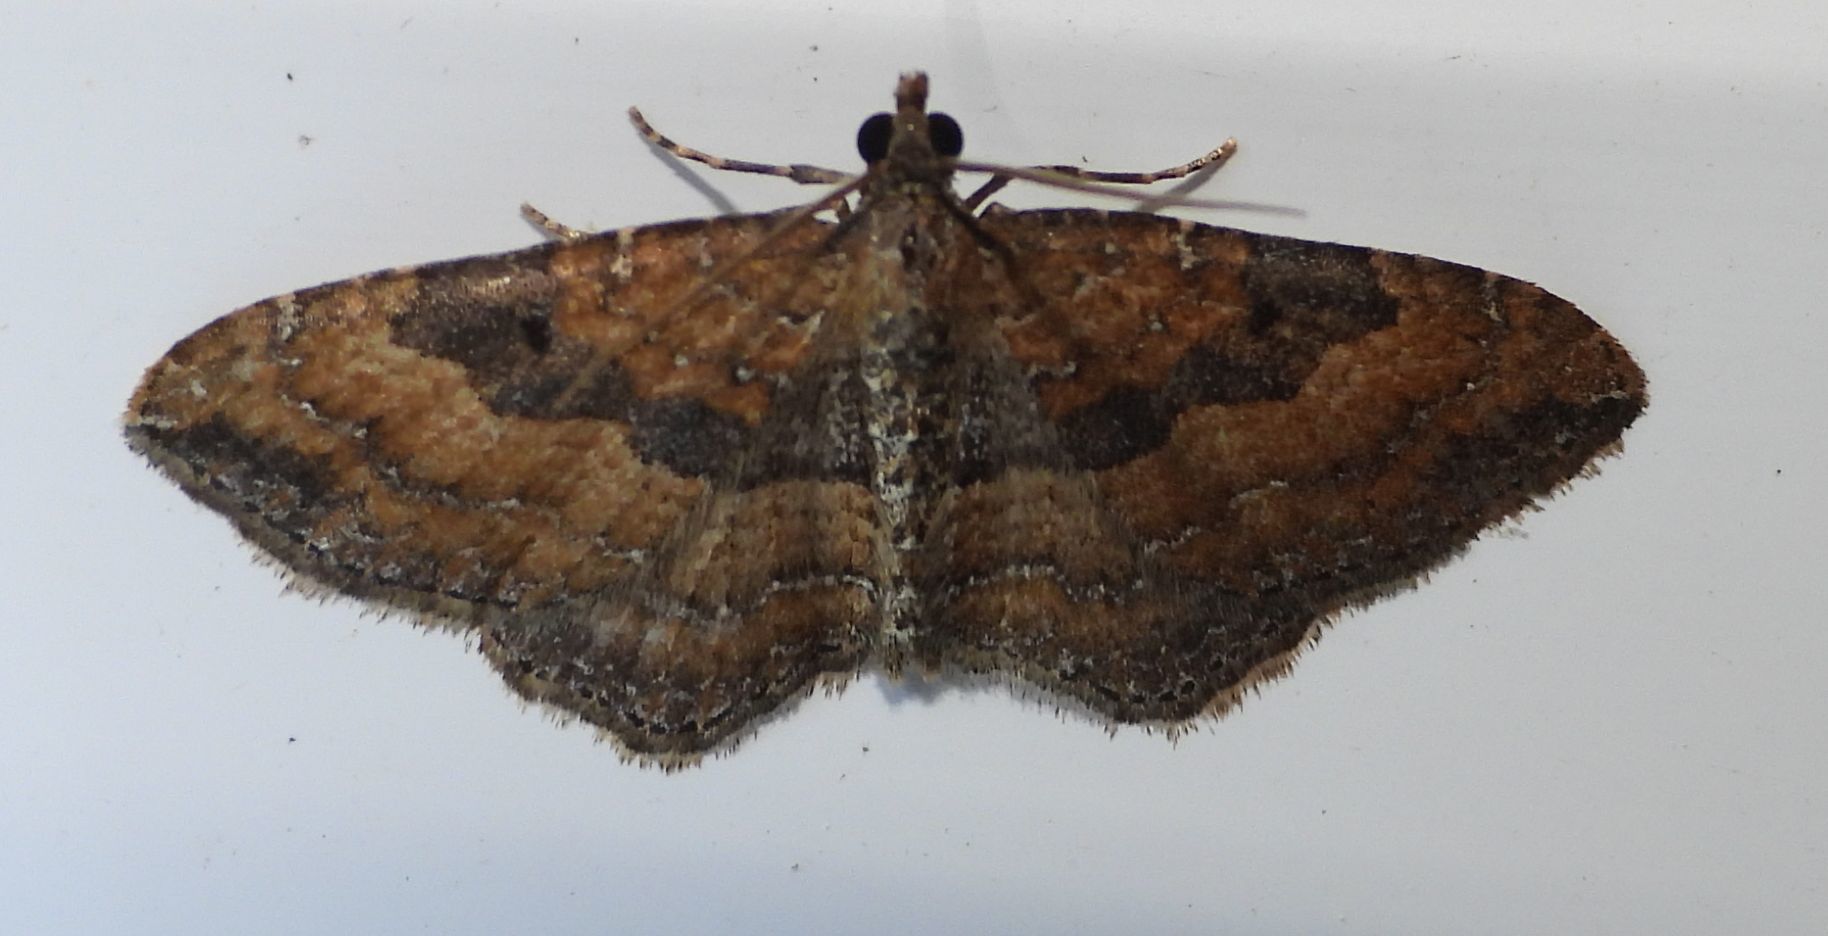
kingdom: Animalia
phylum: Arthropoda
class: Insecta
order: Lepidoptera
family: Geometridae
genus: Orthonama
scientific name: Orthonama obstipata
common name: The gem
